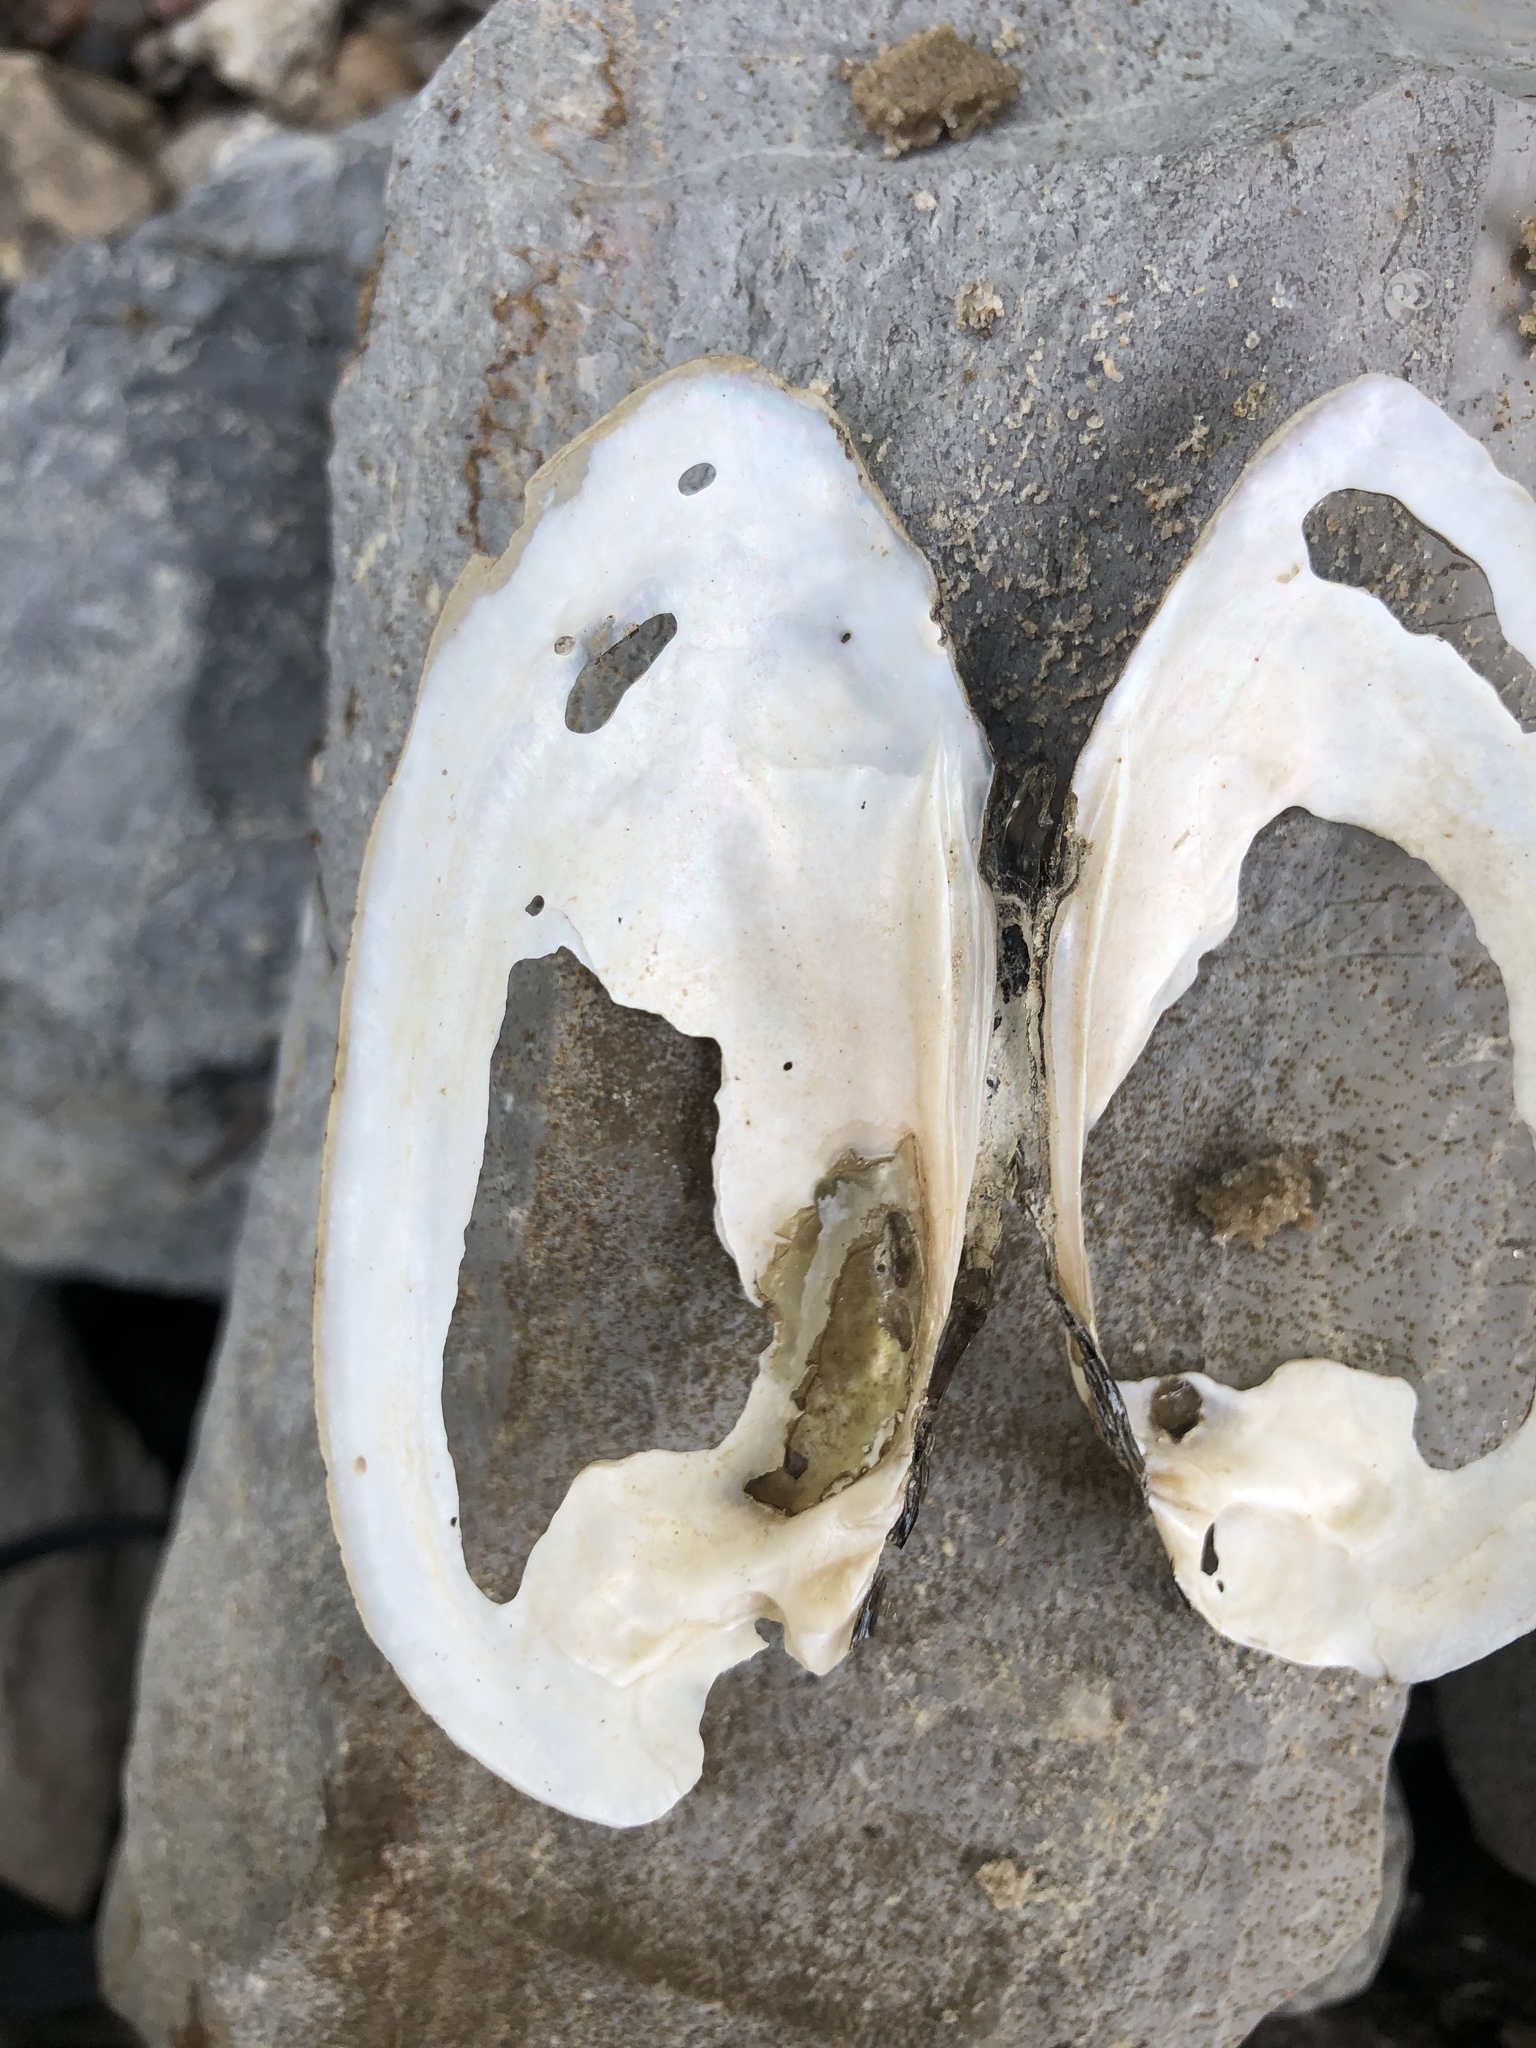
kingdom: Animalia
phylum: Mollusca
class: Bivalvia
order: Unionida
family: Unionidae
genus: Lampsilis
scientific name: Lampsilis teres
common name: Yellow sandshell
